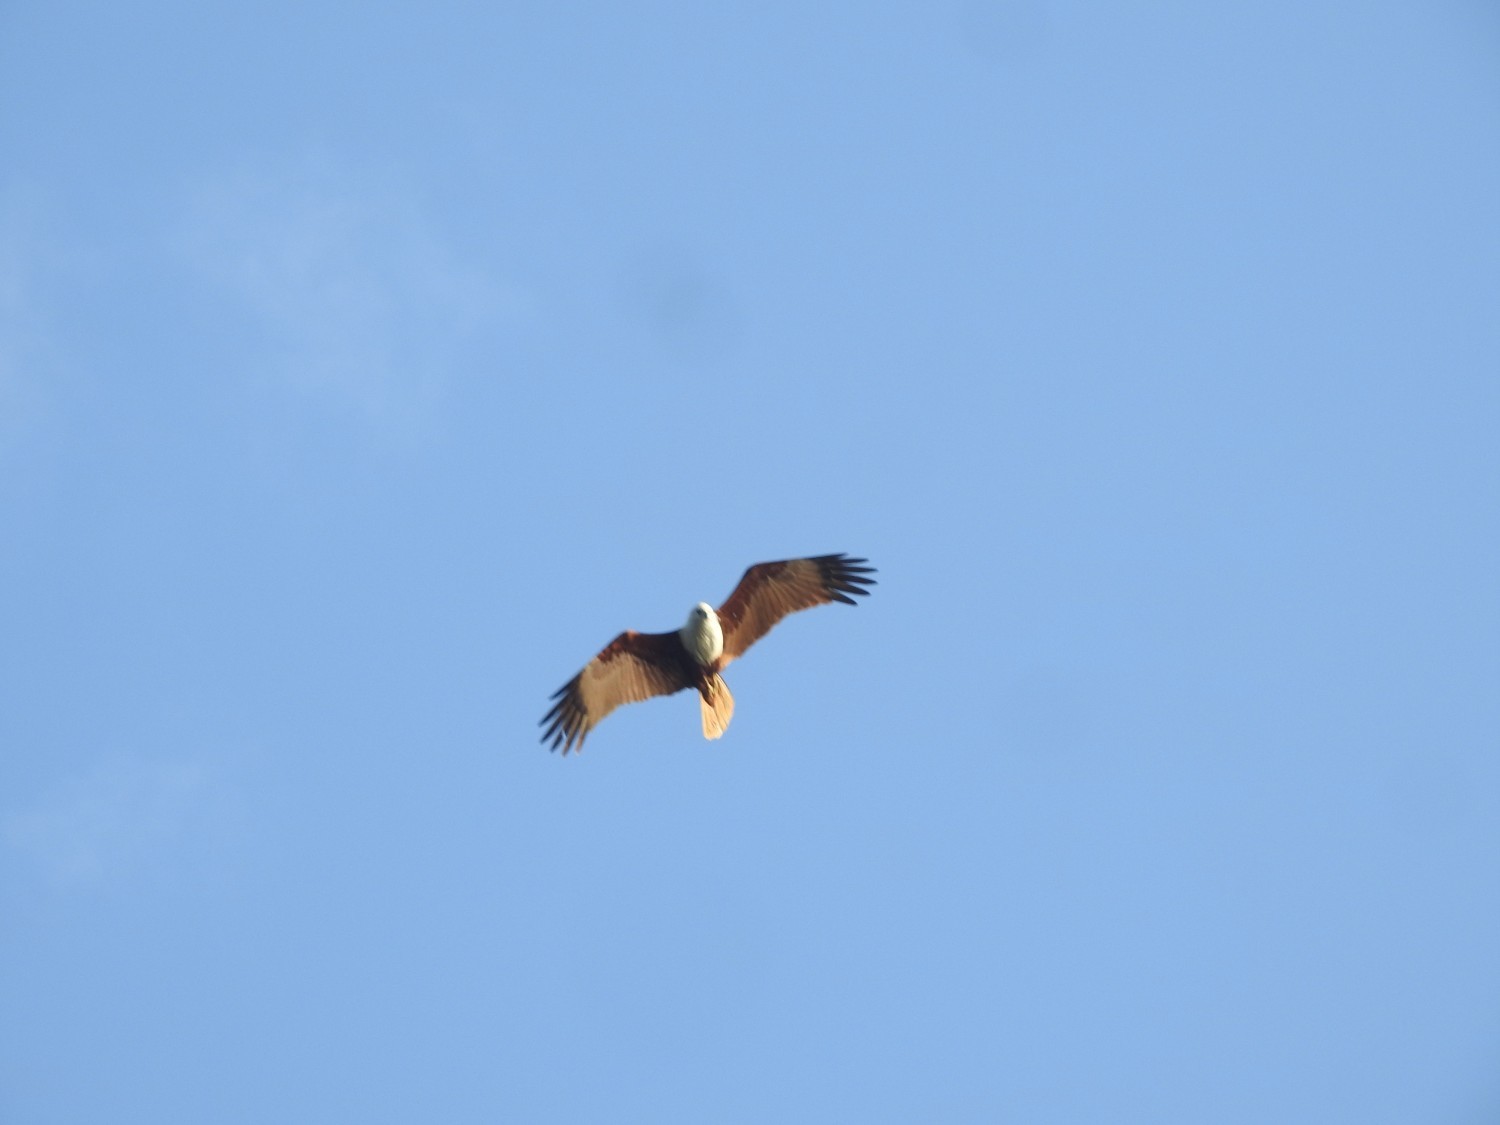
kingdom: Animalia
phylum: Chordata
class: Aves
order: Accipitriformes
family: Accipitridae
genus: Haliastur
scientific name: Haliastur indus
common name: Brahminy kite
